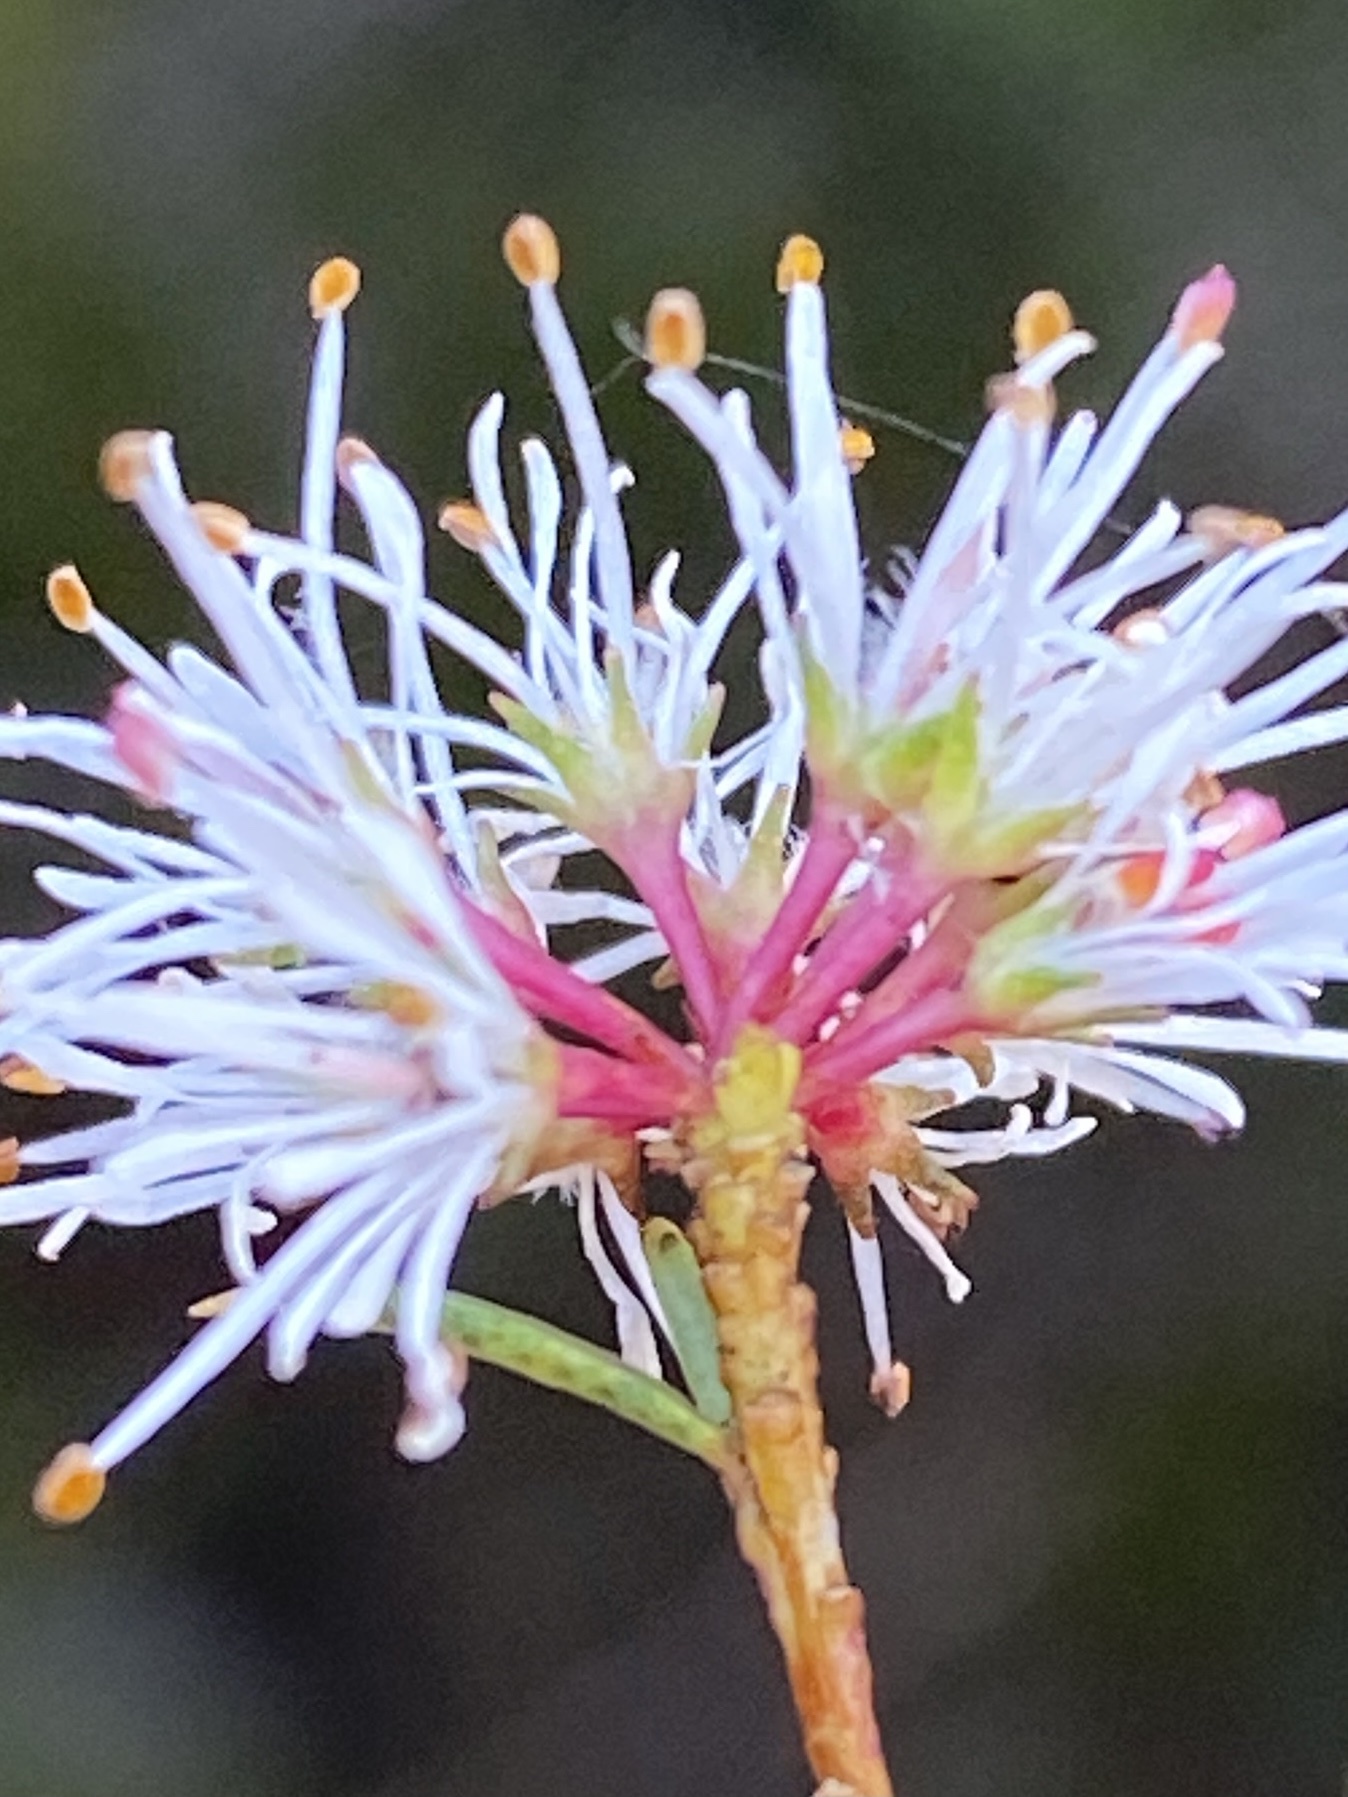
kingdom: Plantae
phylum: Tracheophyta
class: Magnoliopsida
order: Sapindales
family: Rutaceae
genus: Agathosma
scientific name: Agathosma bifida
